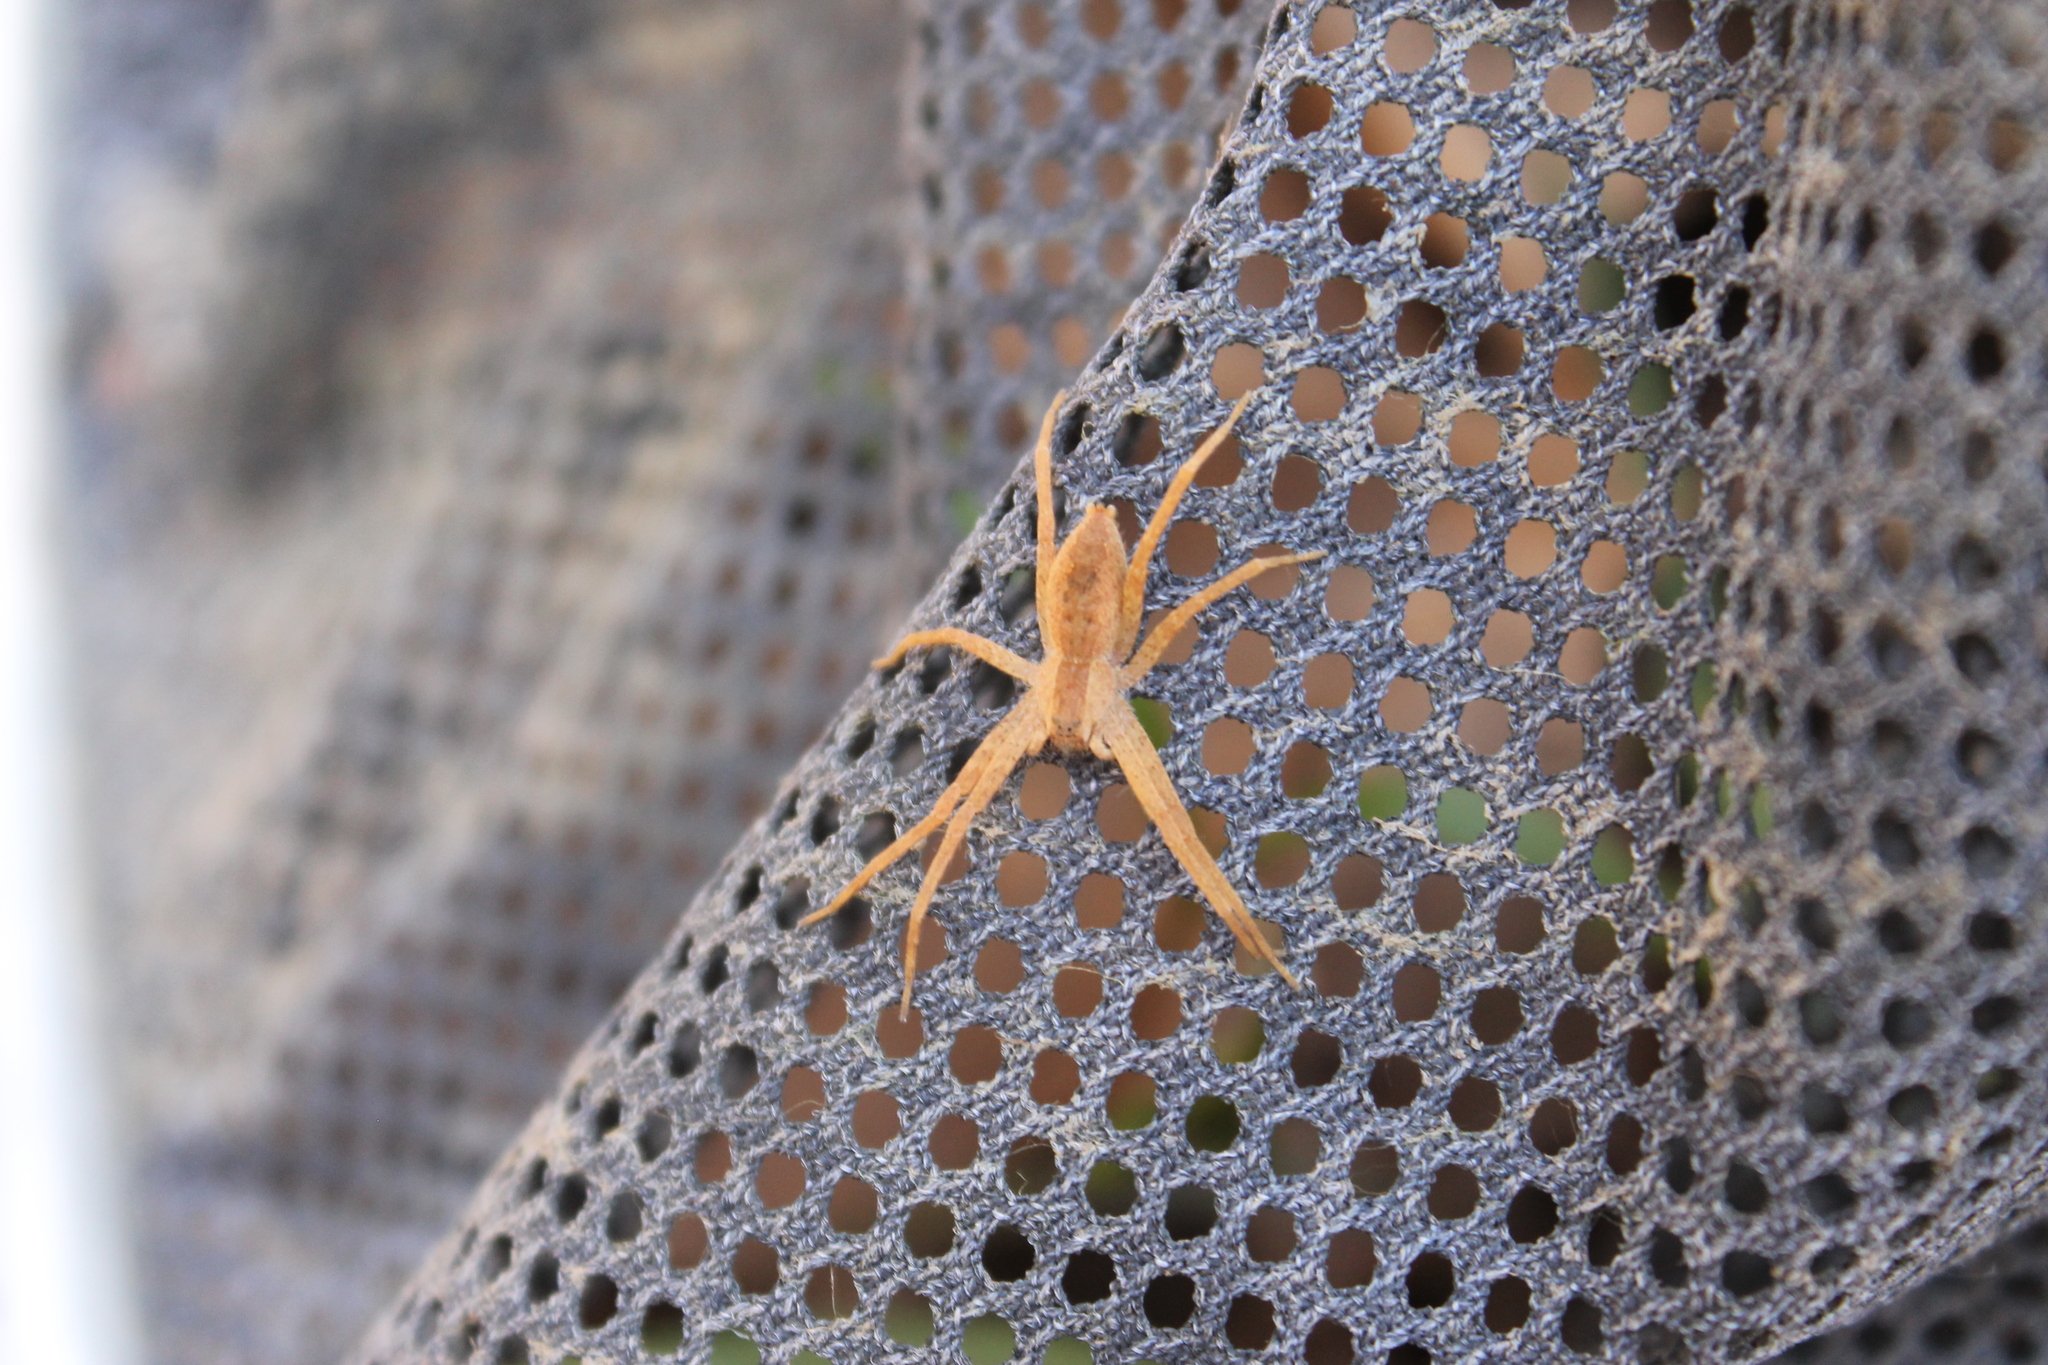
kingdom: Animalia
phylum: Arthropoda
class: Arachnida
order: Araneae
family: Pisauridae
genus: Pisaurina
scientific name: Pisaurina mira
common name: American nursery web spider
